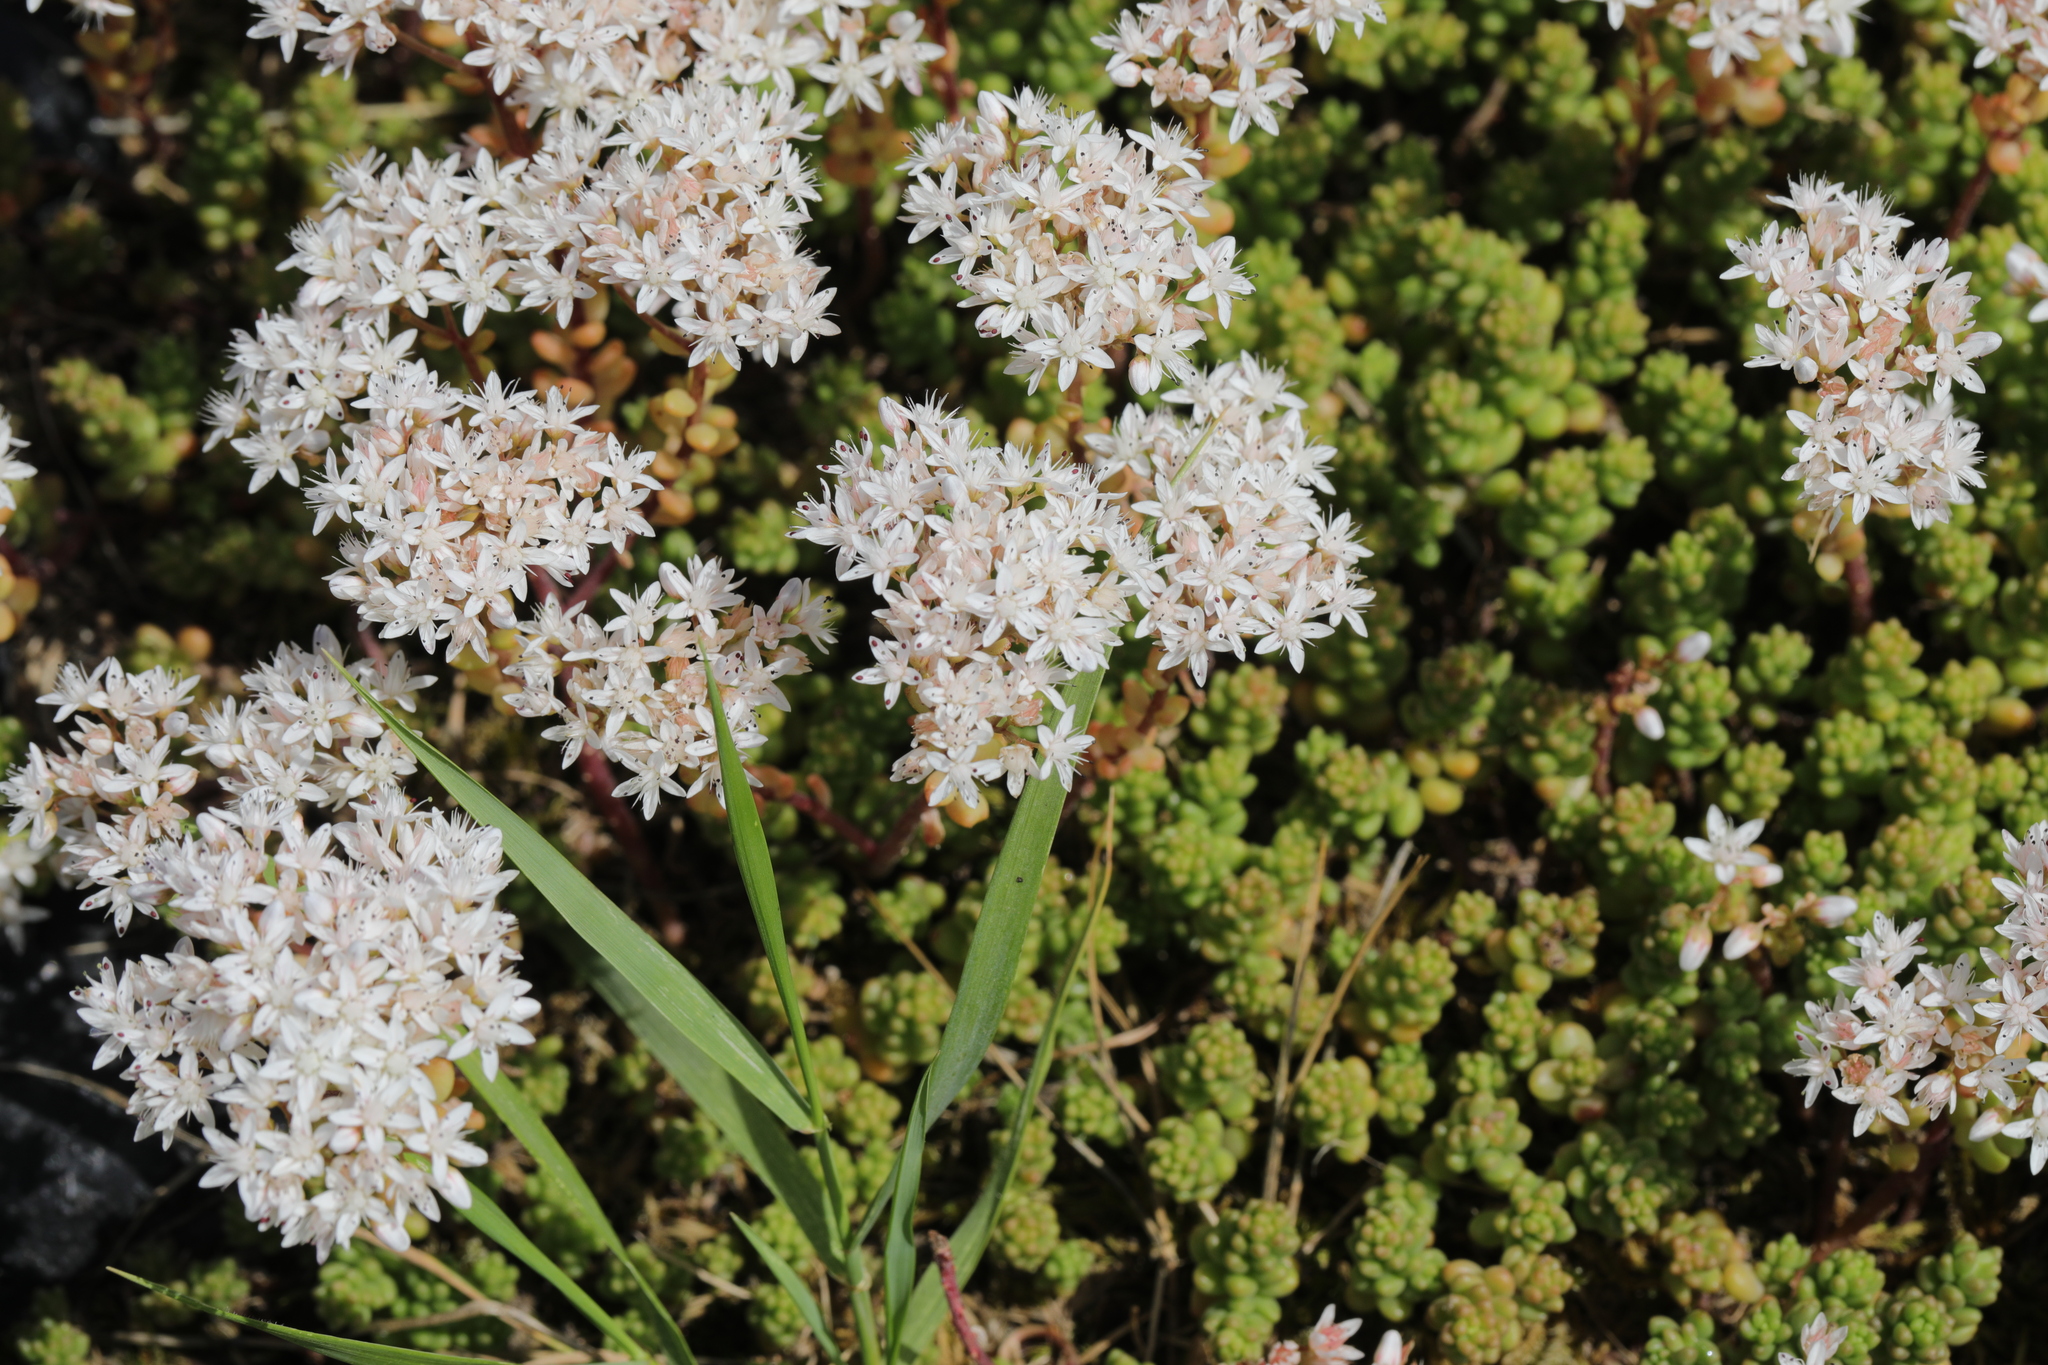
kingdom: Plantae
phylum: Tracheophyta
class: Magnoliopsida
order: Saxifragales
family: Crassulaceae
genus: Sedum
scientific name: Sedum album
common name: White stonecrop
